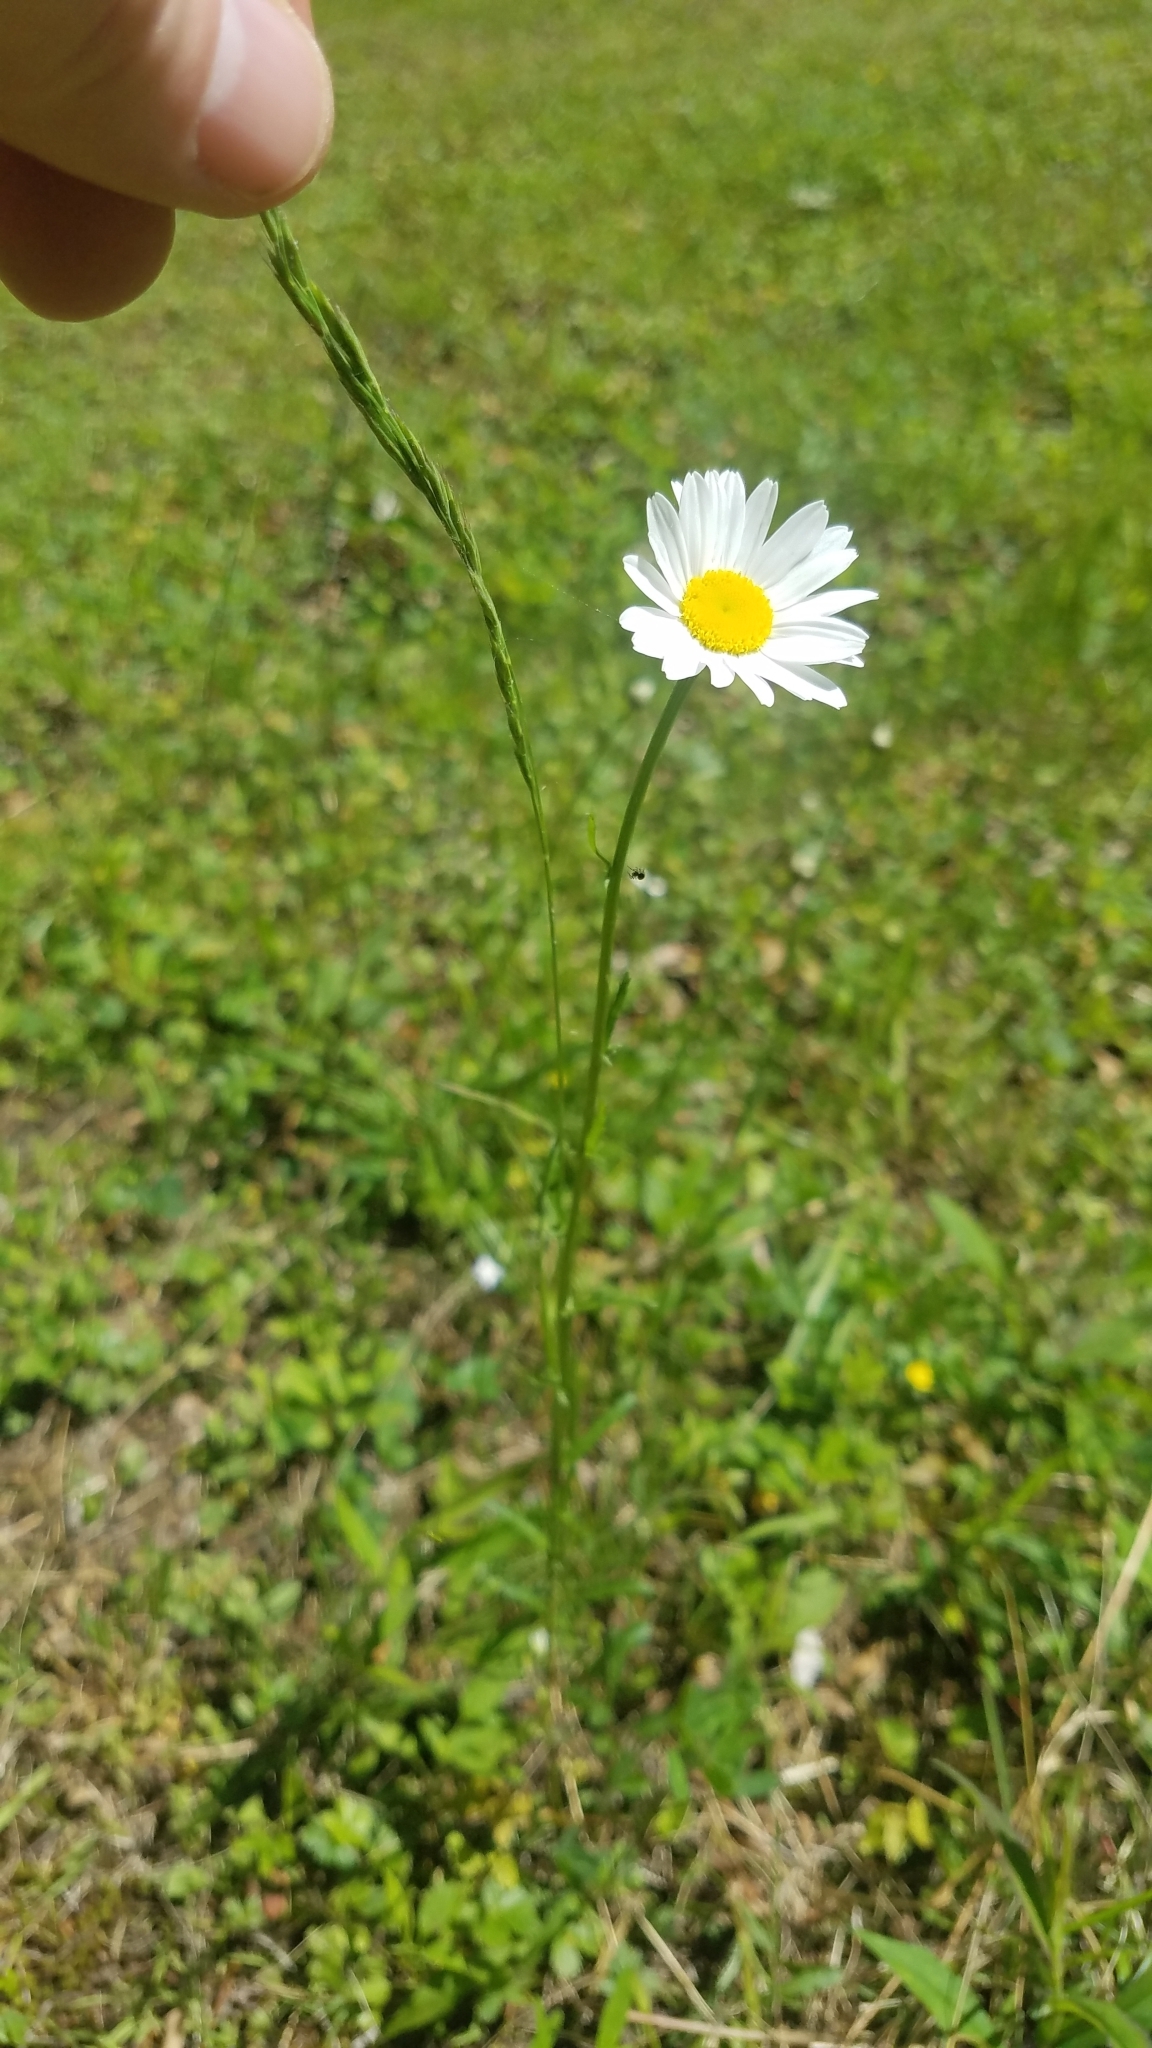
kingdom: Plantae
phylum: Tracheophyta
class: Magnoliopsida
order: Asterales
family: Asteraceae
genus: Leucanthemum
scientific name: Leucanthemum vulgare
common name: Oxeye daisy
